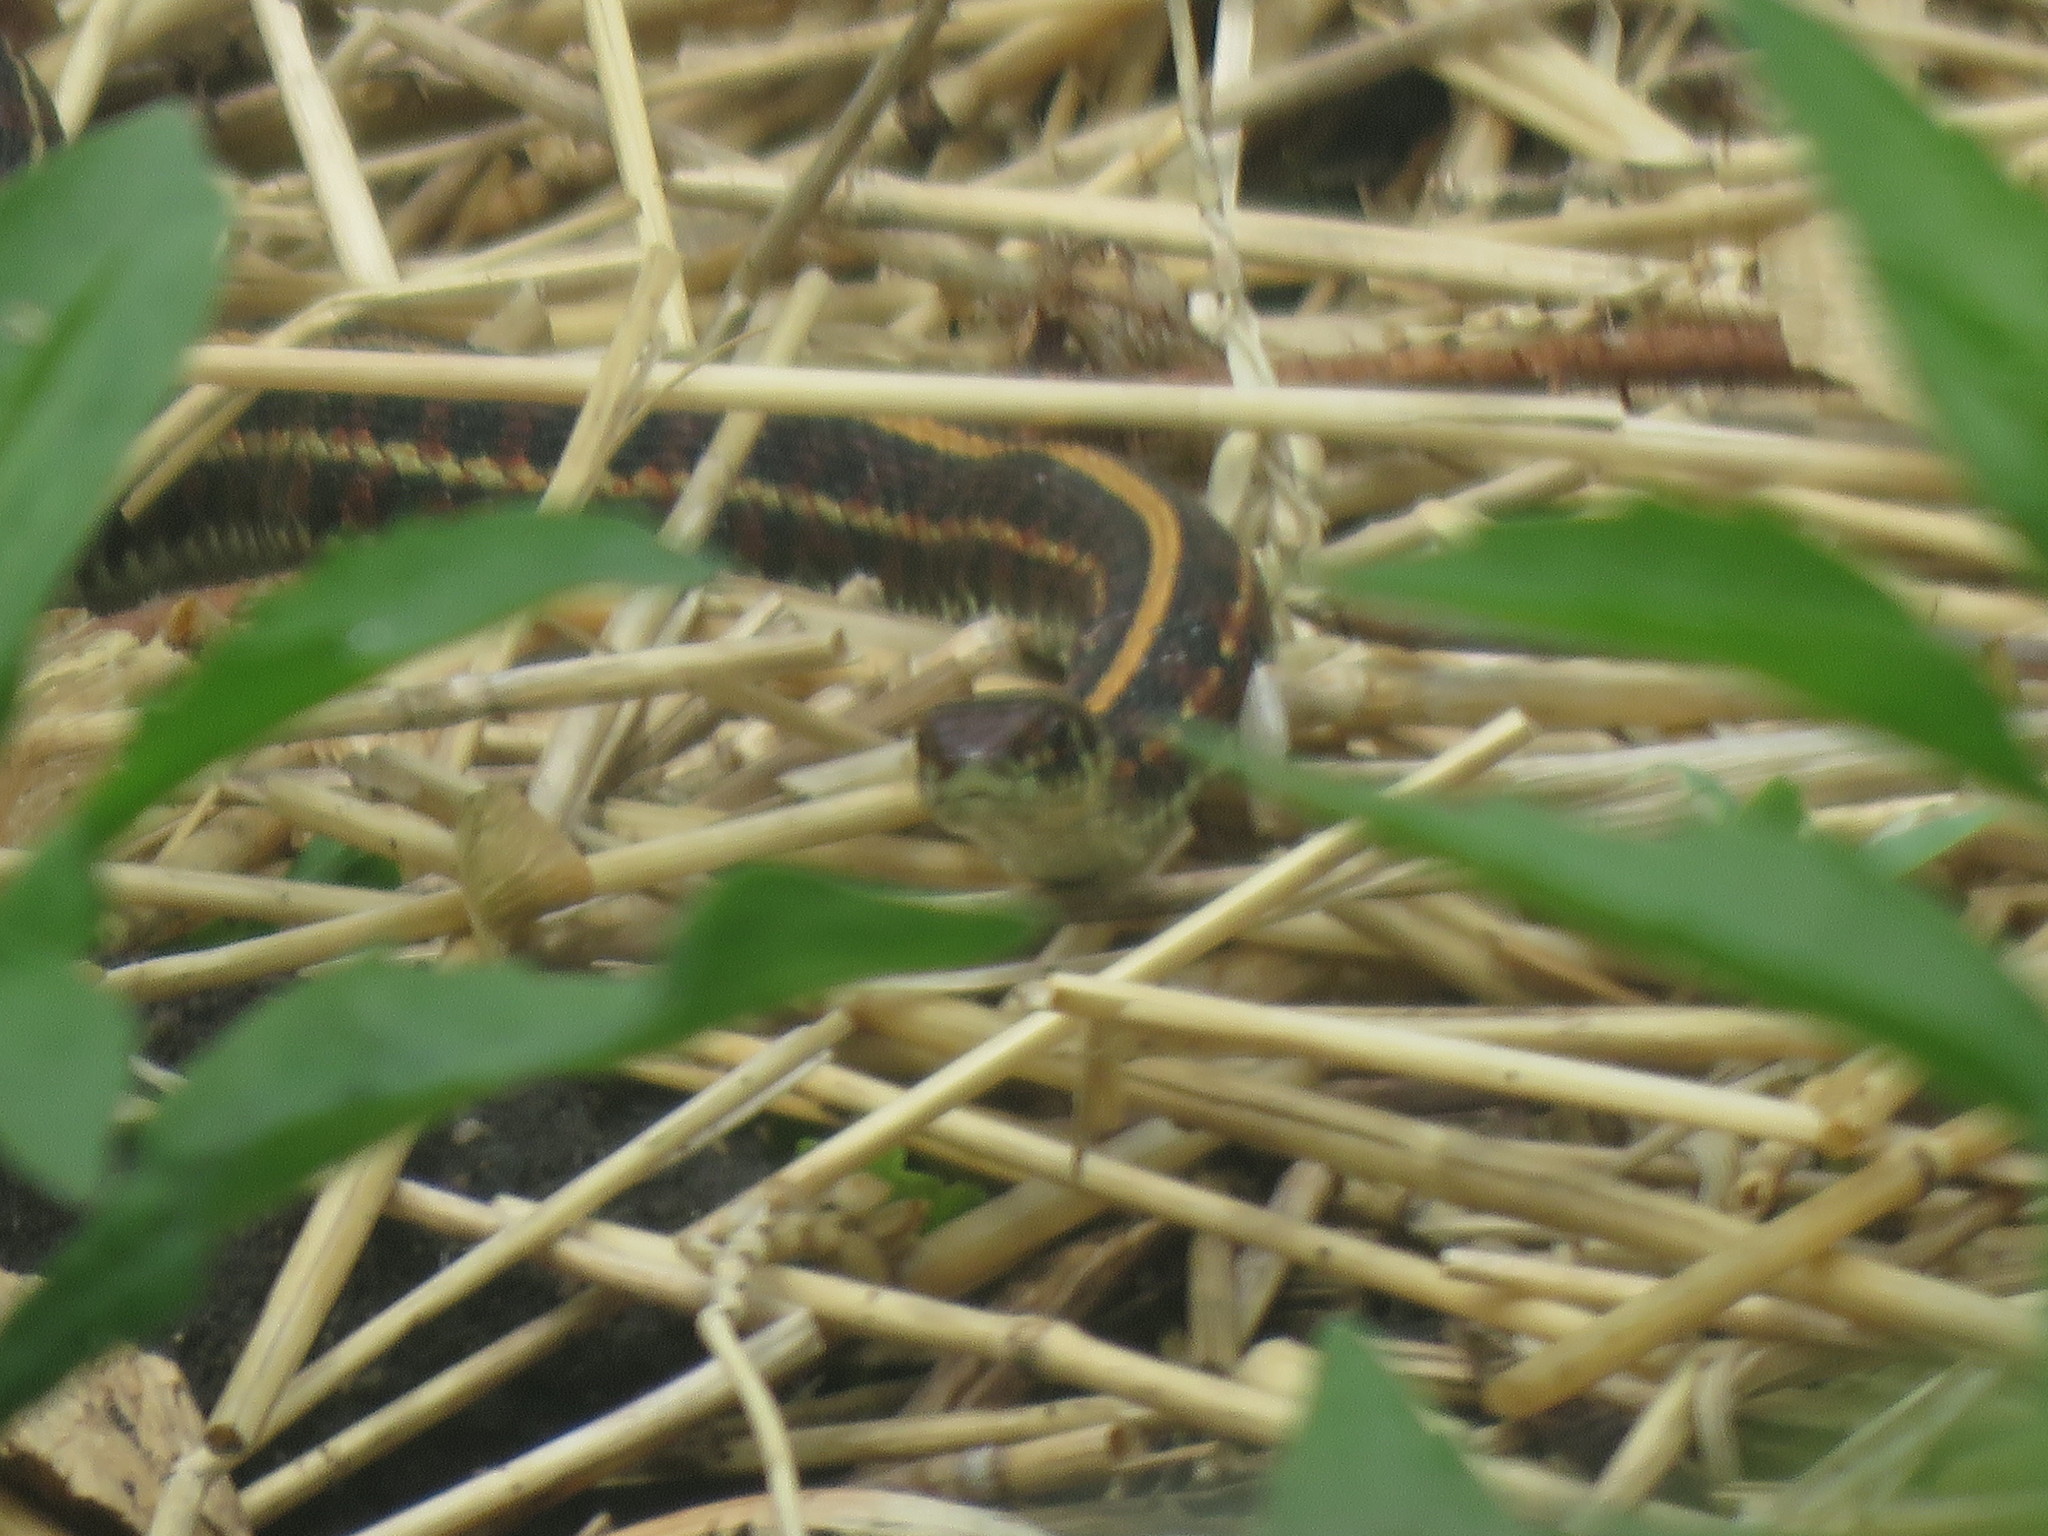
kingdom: Animalia
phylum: Chordata
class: Squamata
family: Colubridae
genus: Thamnophis
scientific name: Thamnophis radix
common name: Plains garter snake
